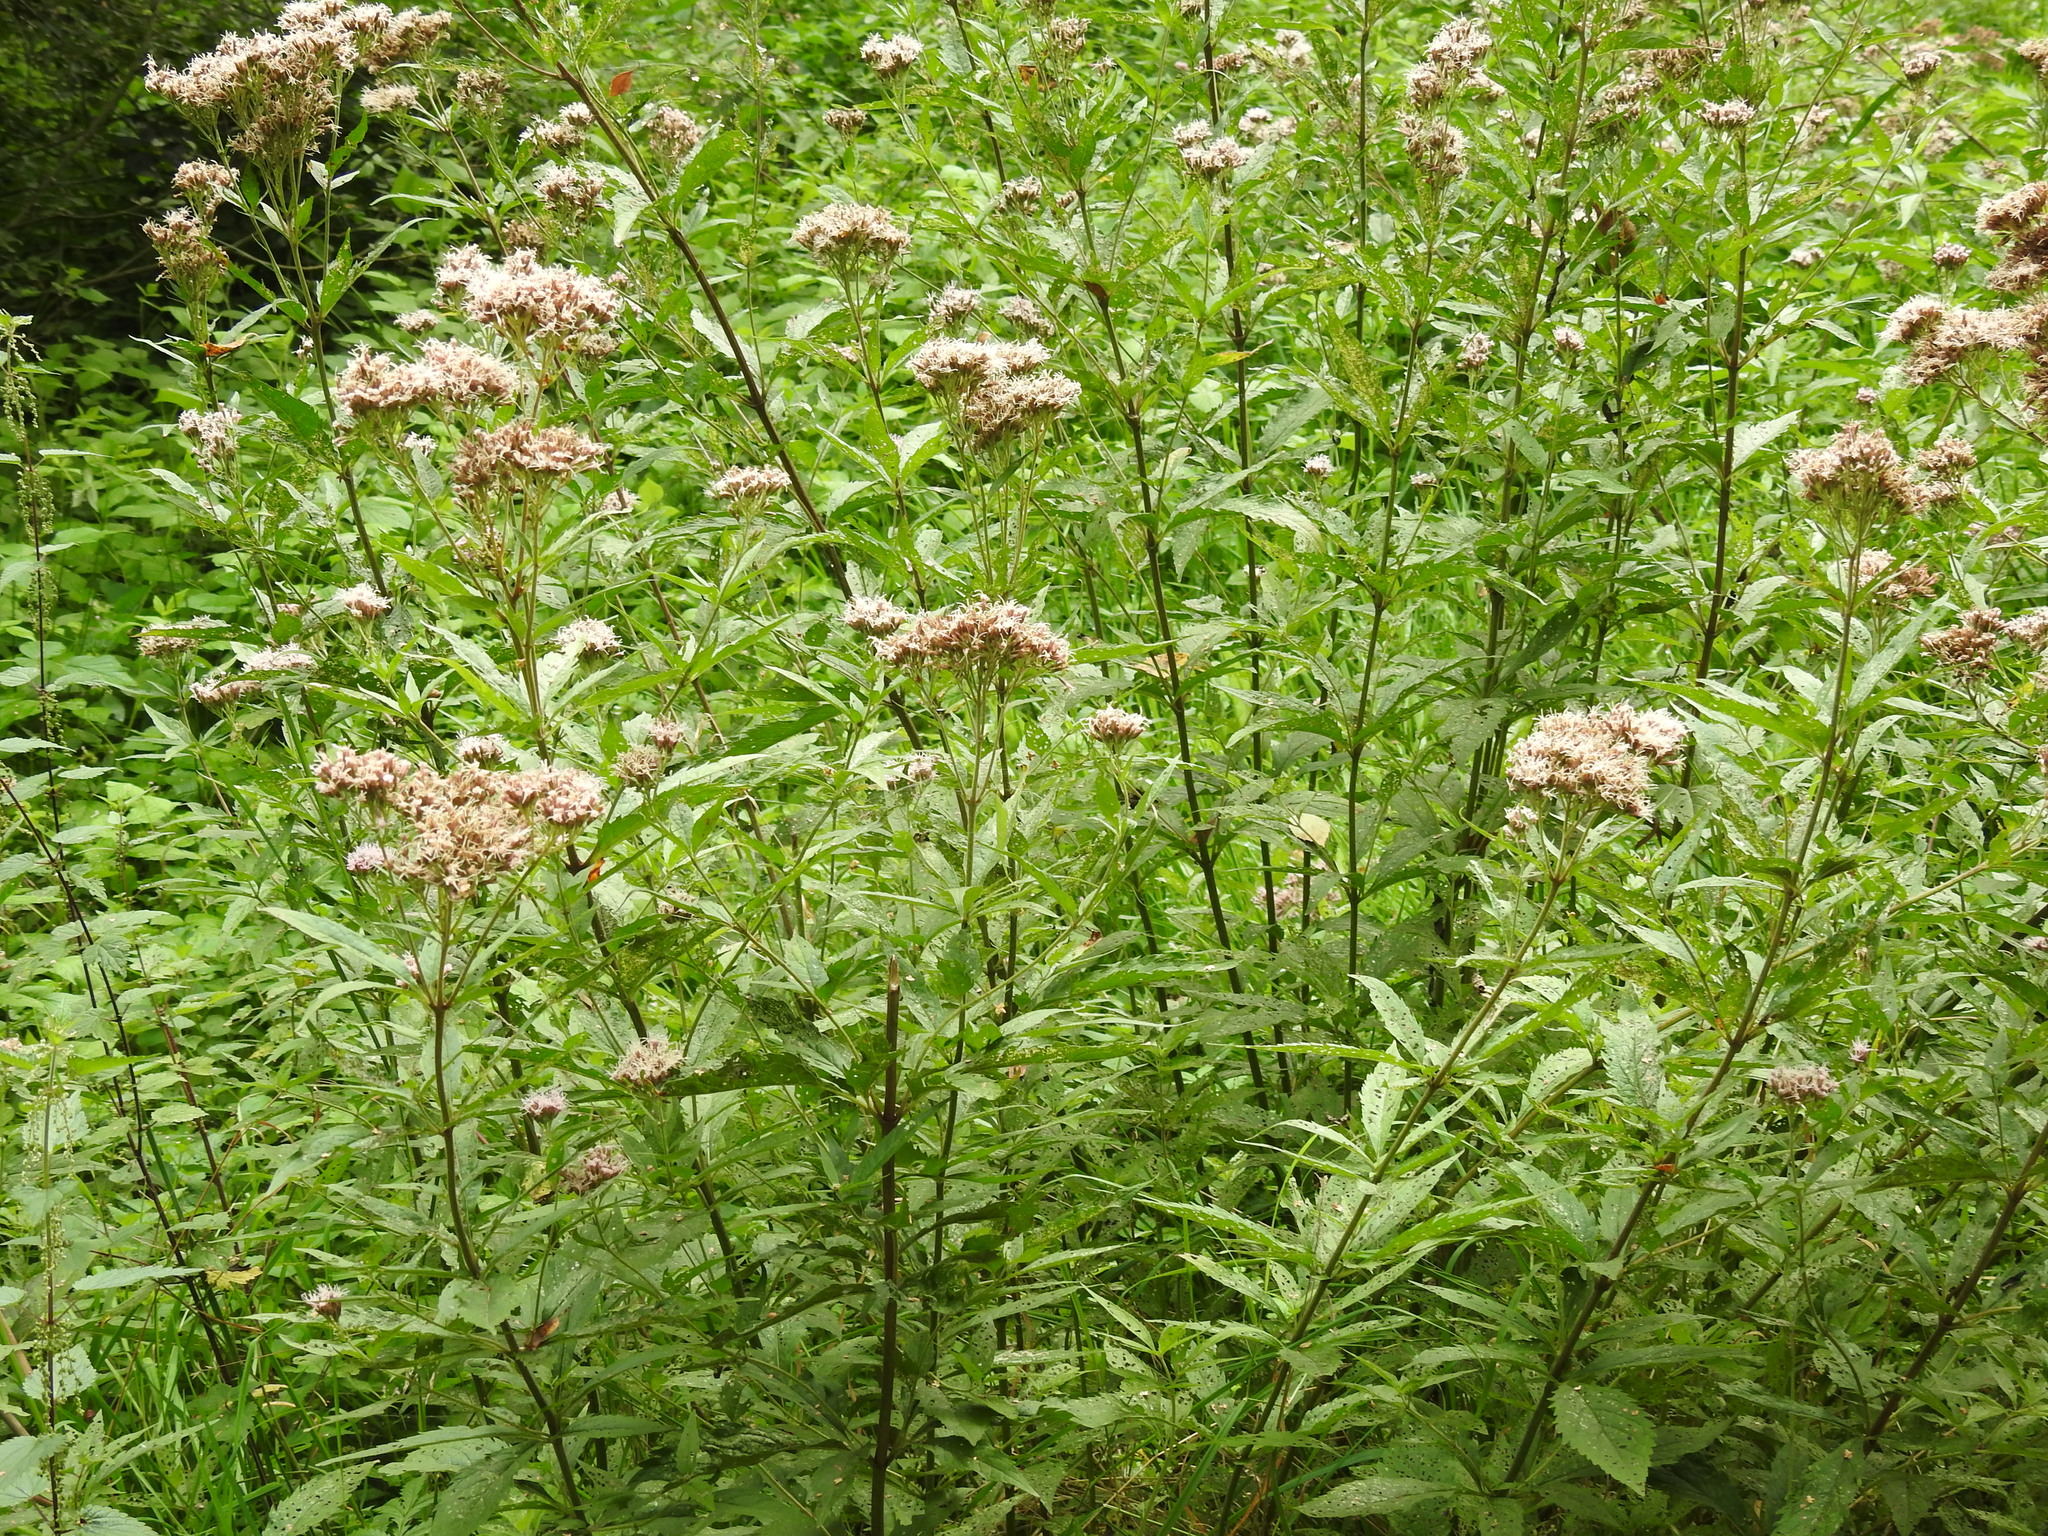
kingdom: Plantae
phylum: Tracheophyta
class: Magnoliopsida
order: Asterales
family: Asteraceae
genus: Eupatorium
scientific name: Eupatorium cannabinum
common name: Hemp-agrimony
